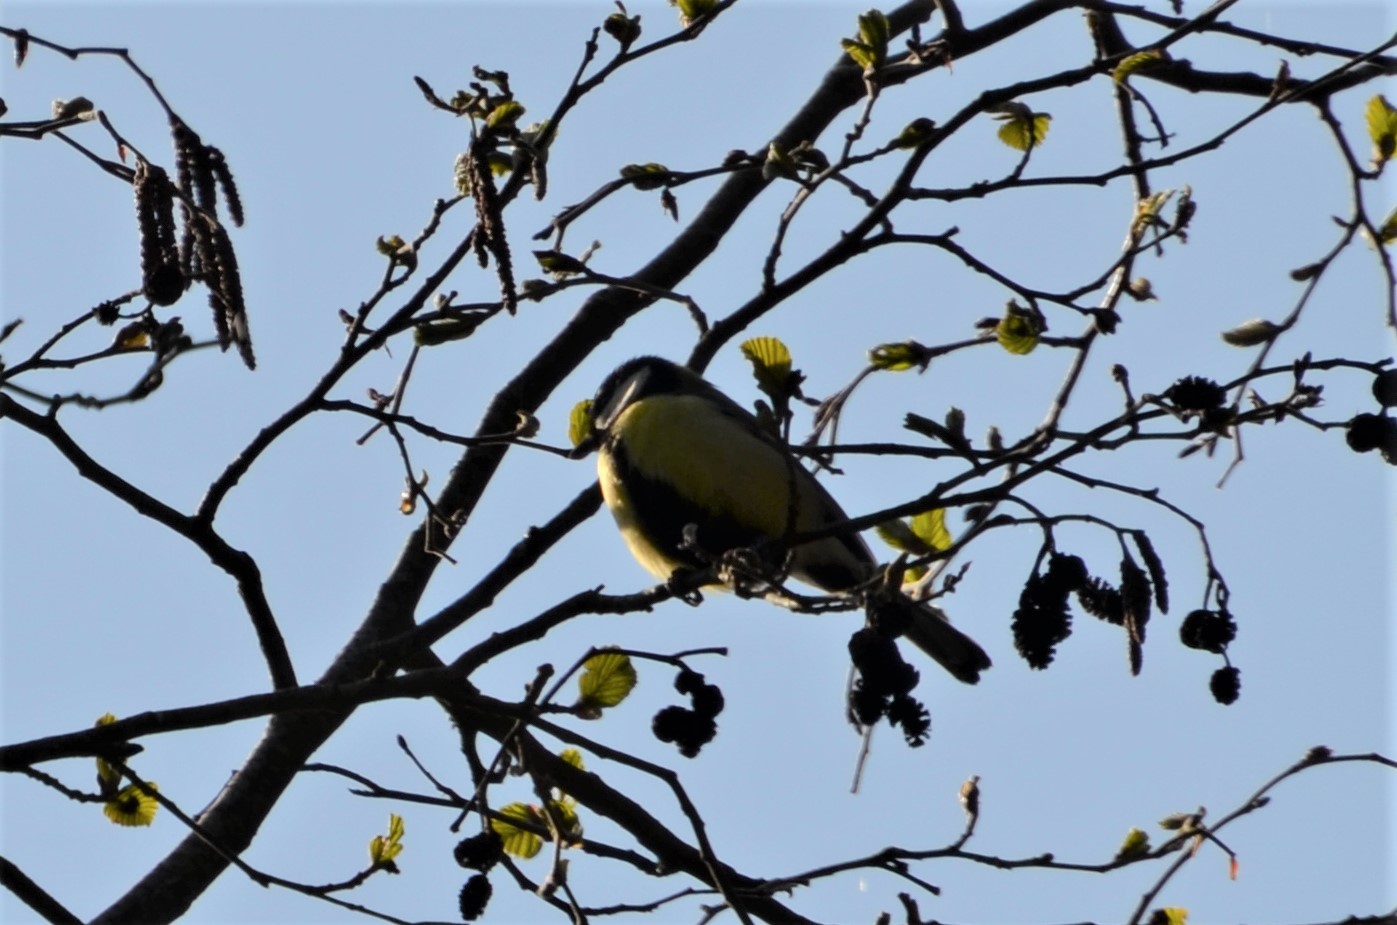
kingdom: Animalia
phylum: Chordata
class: Aves
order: Passeriformes
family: Paridae
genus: Parus
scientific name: Parus major
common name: Great tit
